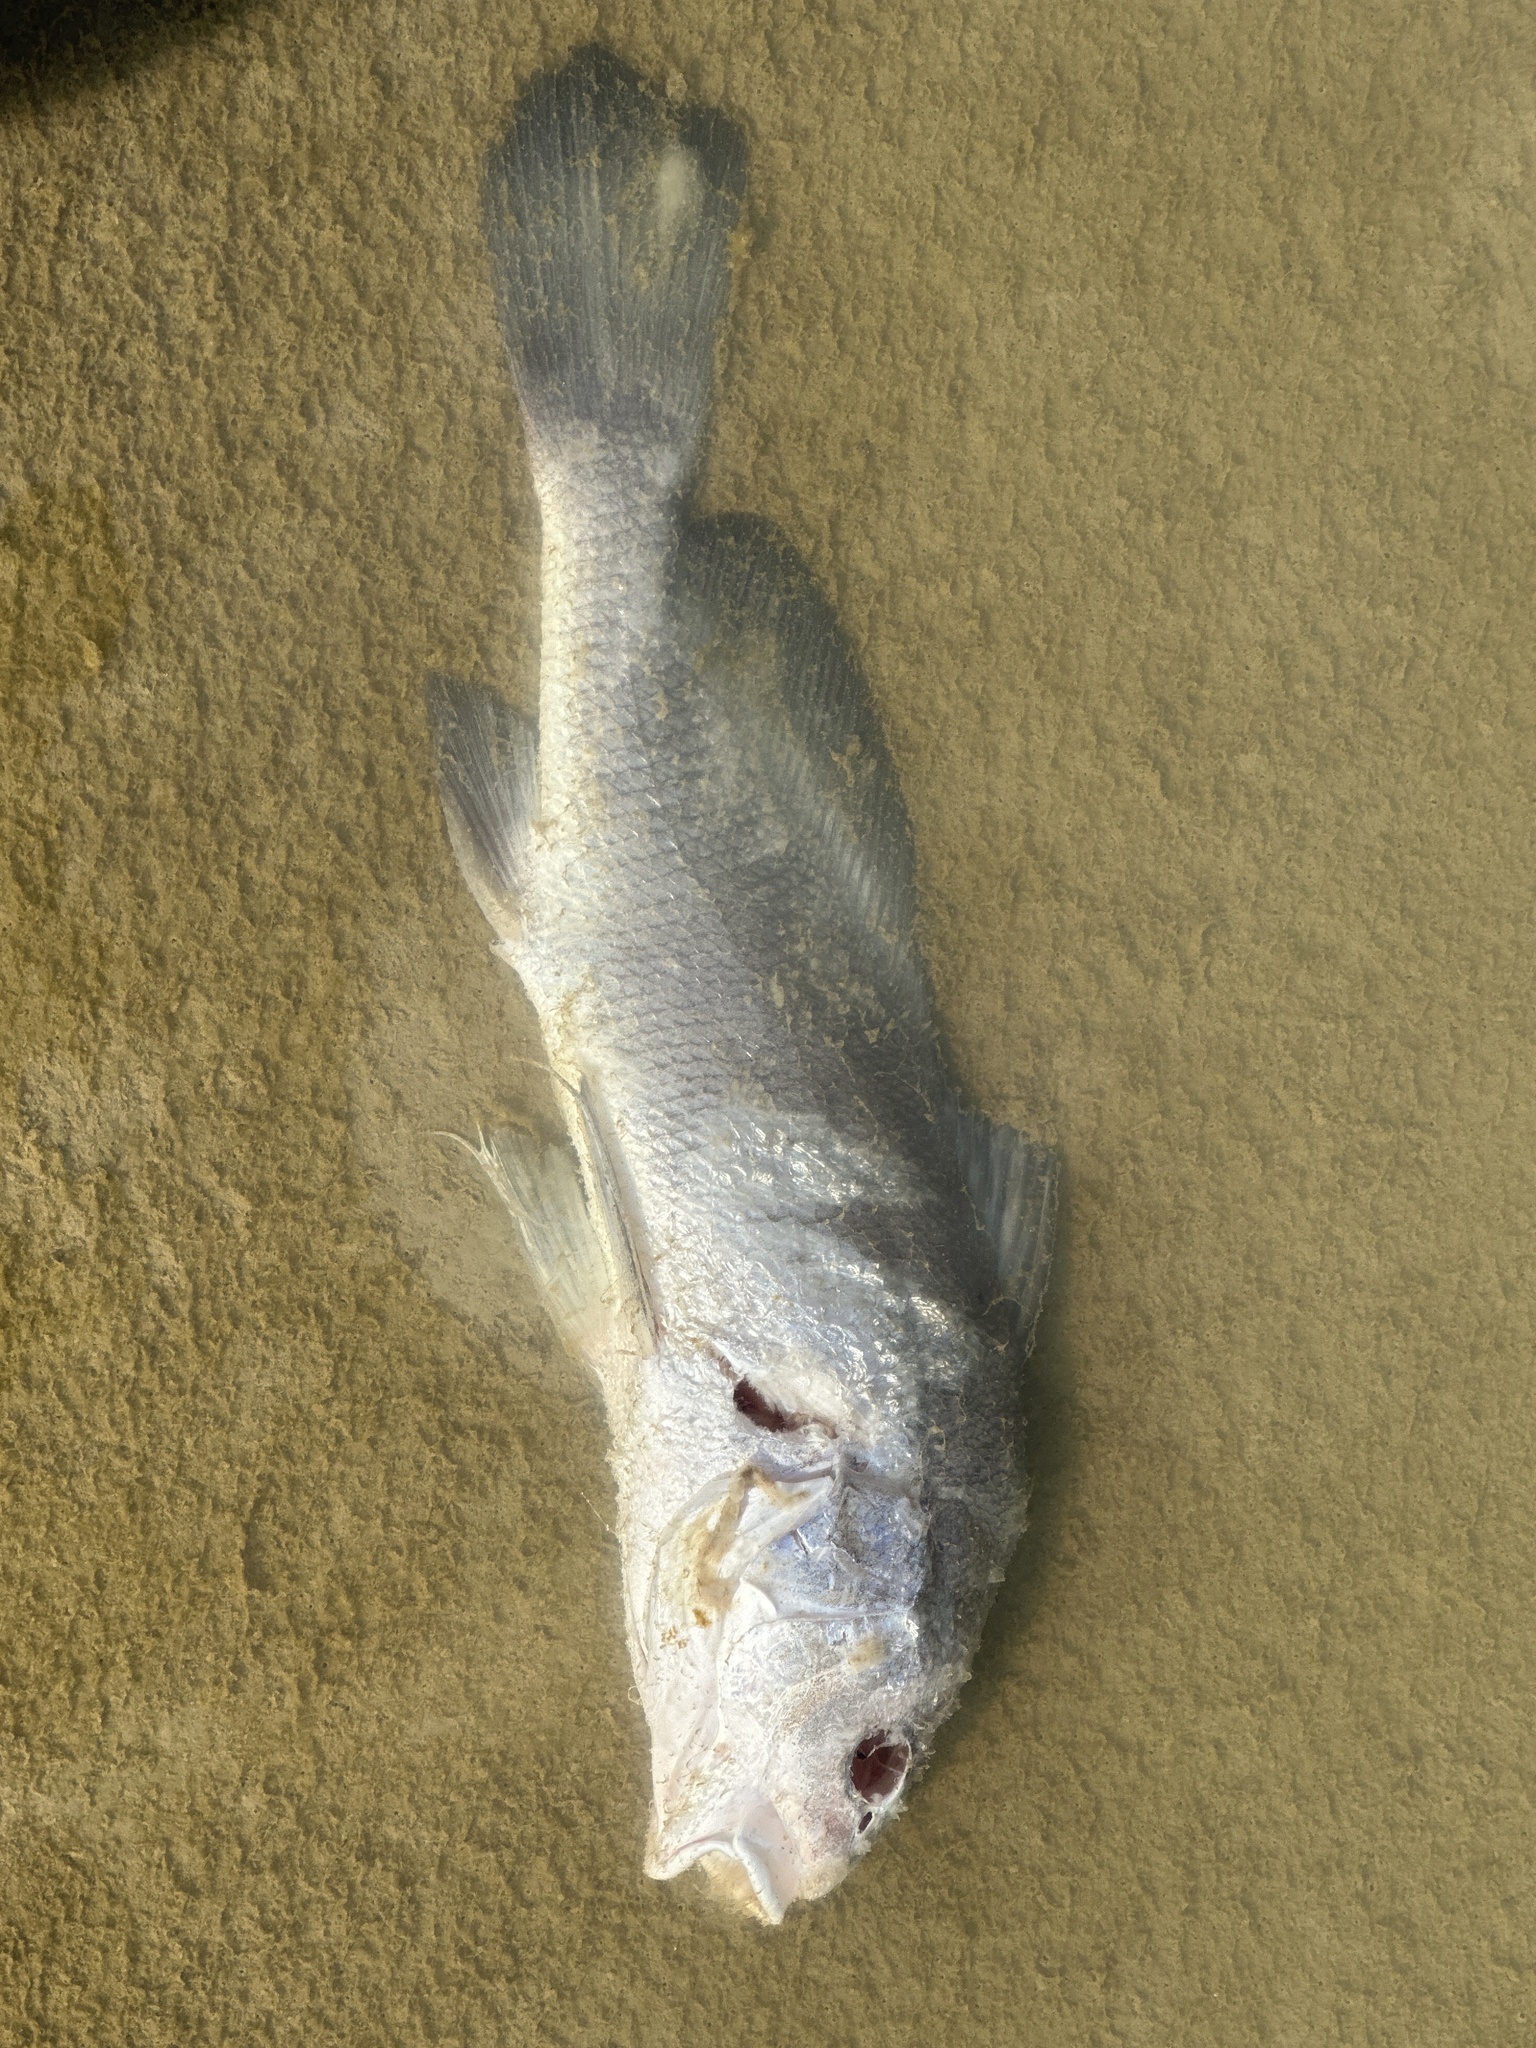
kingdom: Animalia
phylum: Chordata
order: Perciformes
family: Sciaenidae
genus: Aplodinotus
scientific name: Aplodinotus grunniens
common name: Freshwater drum
